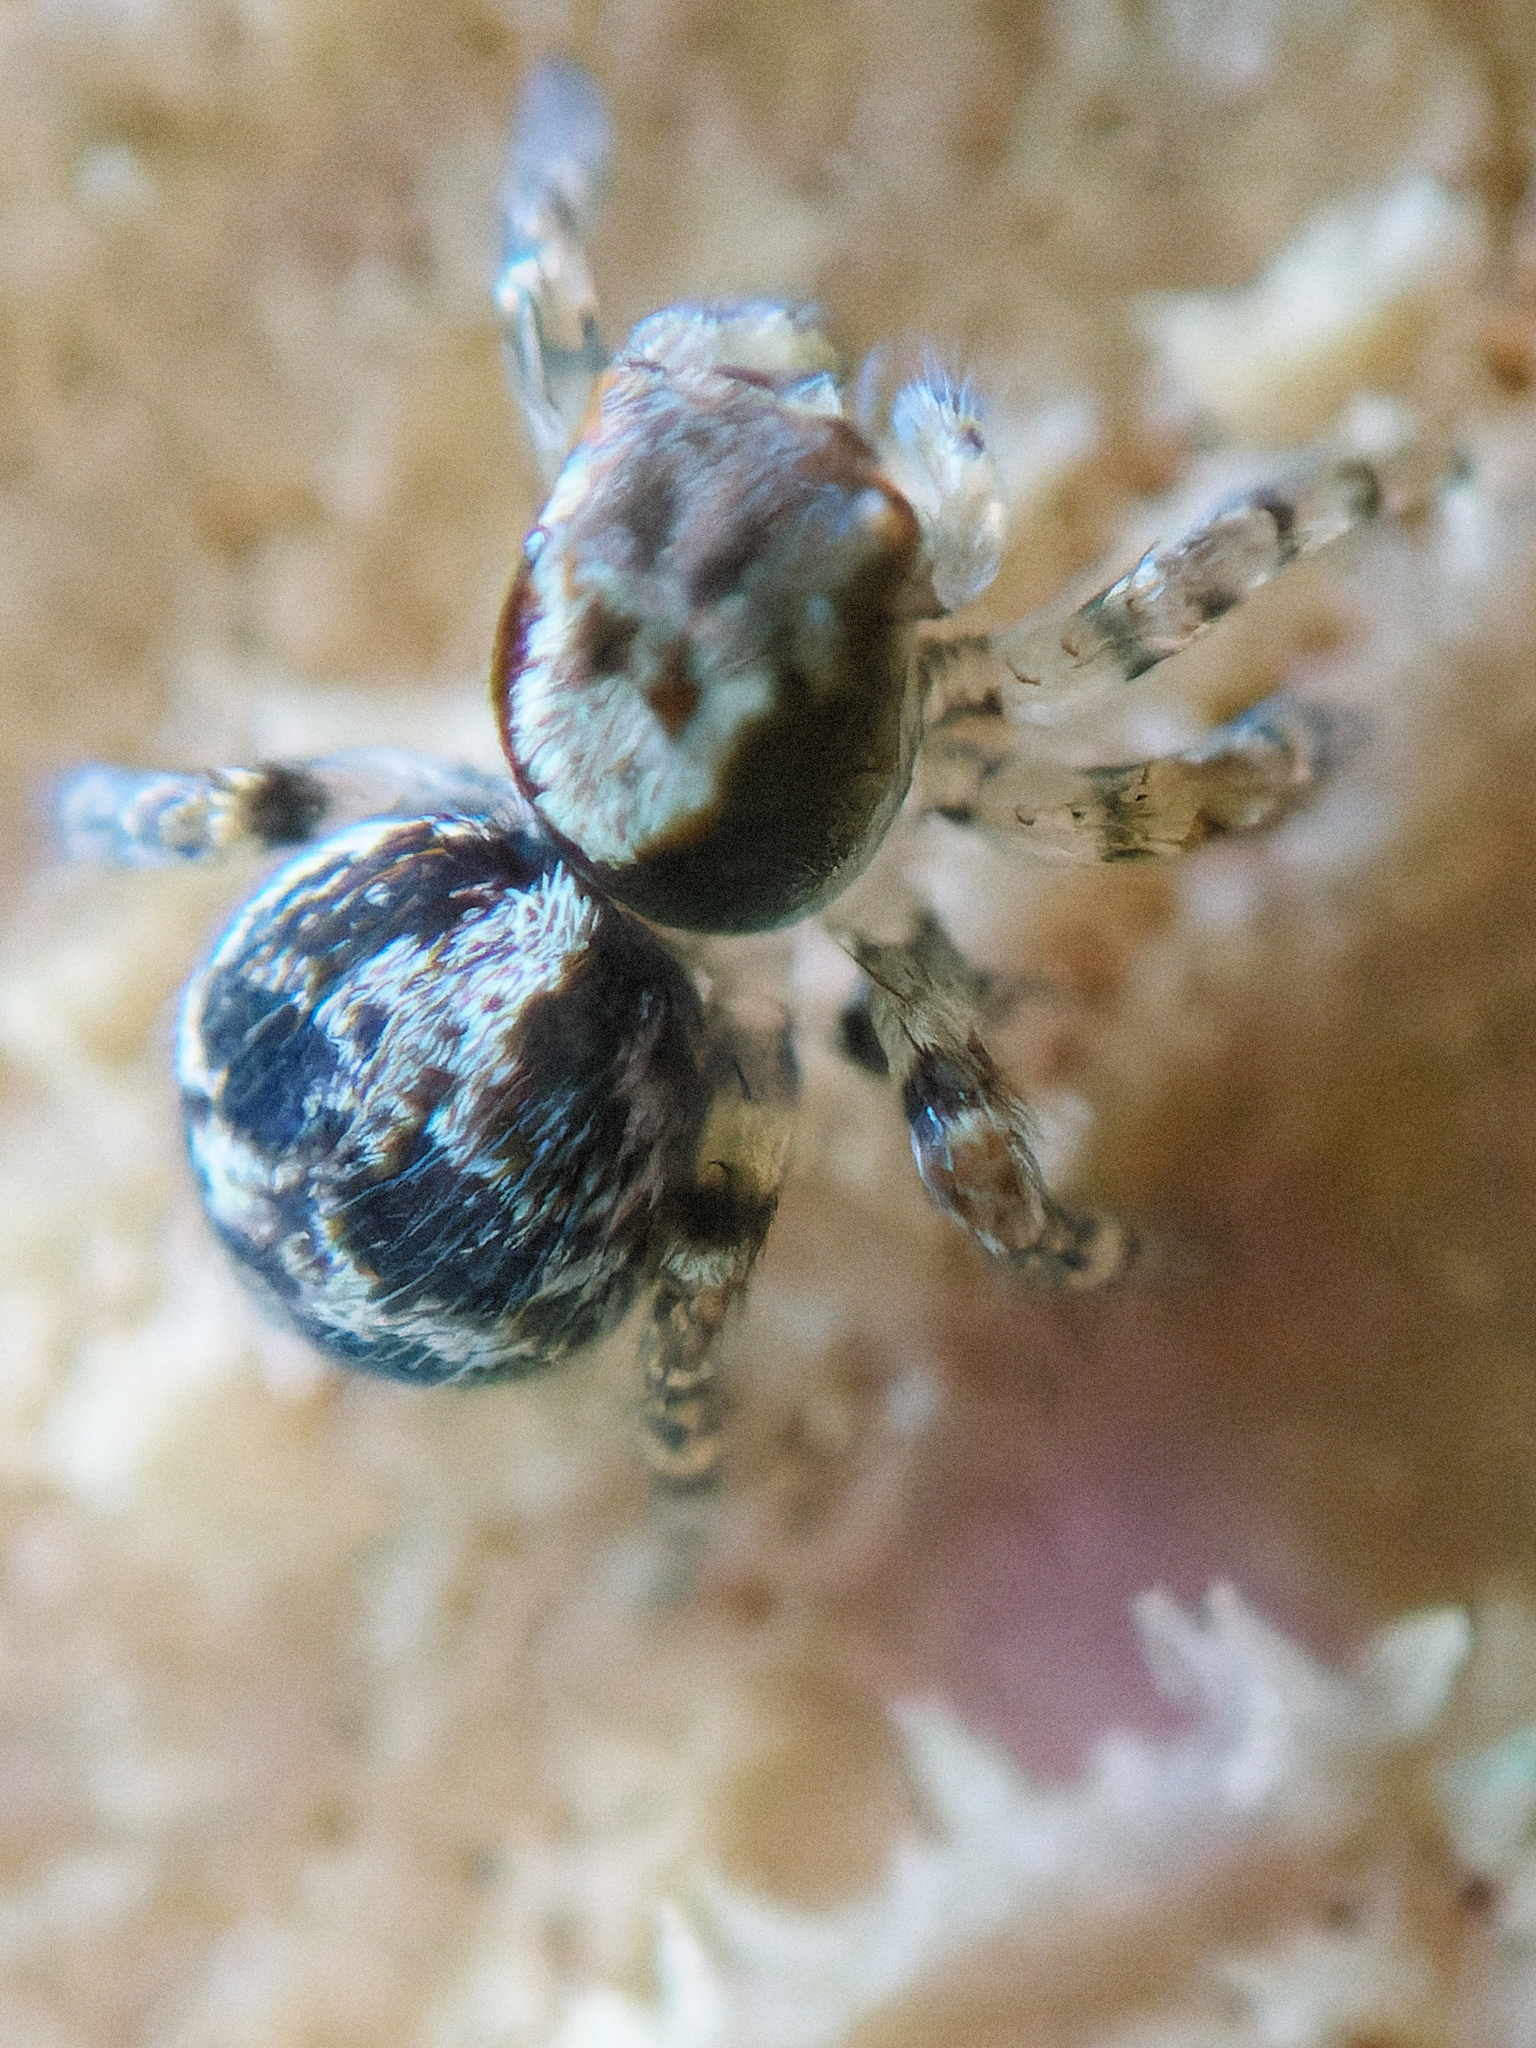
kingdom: Animalia
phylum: Arthropoda
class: Arachnida
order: Araneae
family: Salticidae
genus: Naphrys
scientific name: Naphrys pulex
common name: Flea jumping spider
